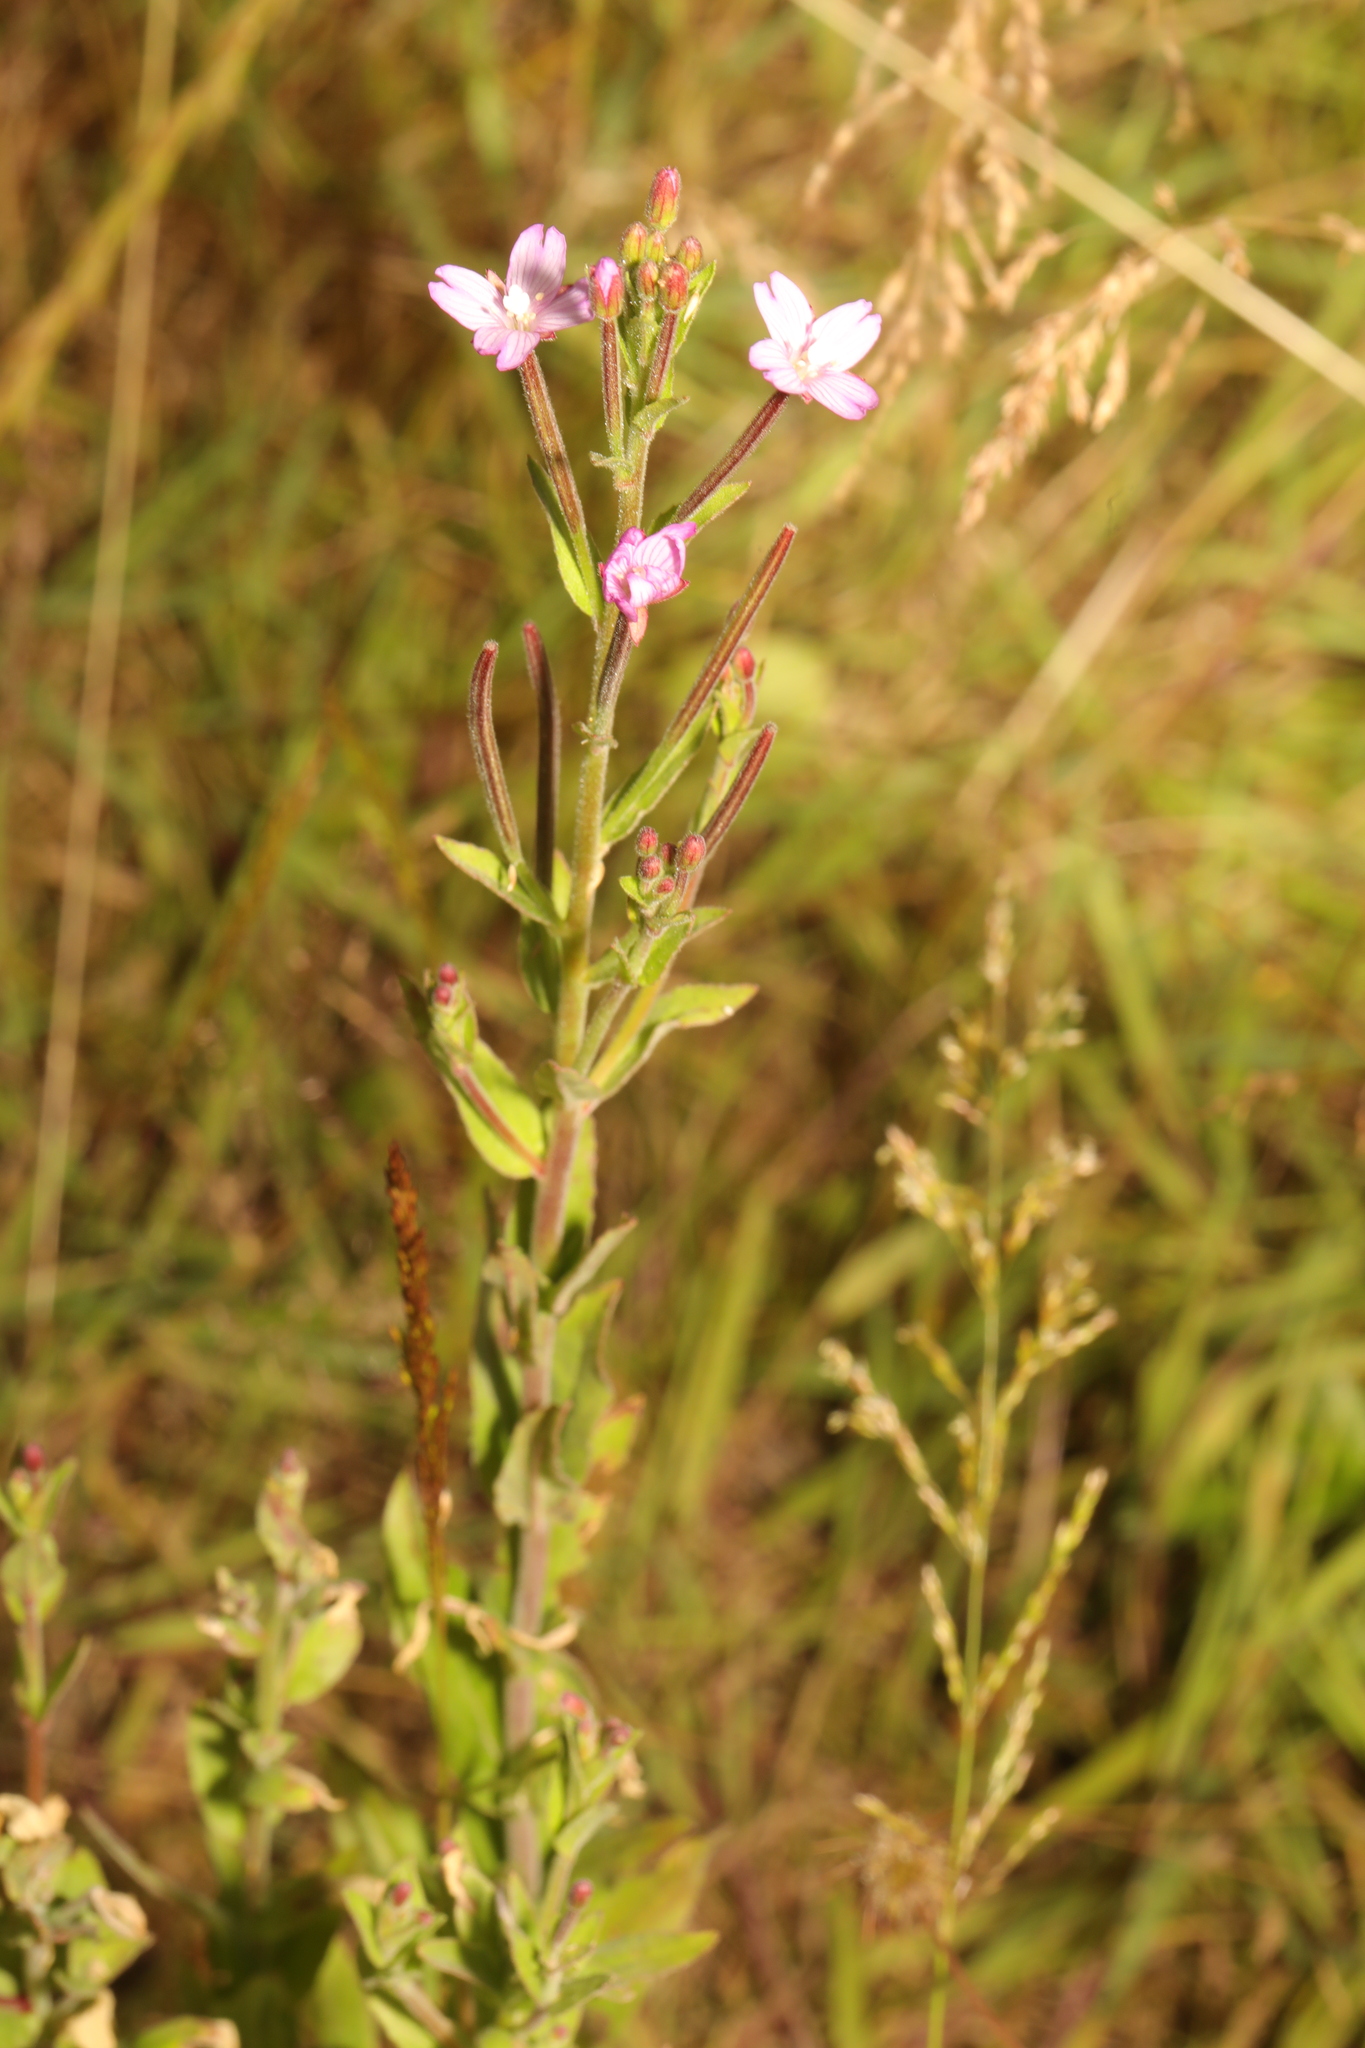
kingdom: Plantae
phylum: Tracheophyta
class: Magnoliopsida
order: Myrtales
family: Onagraceae
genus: Epilobium
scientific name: Epilobium parviflorum
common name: Hoary willowherb
